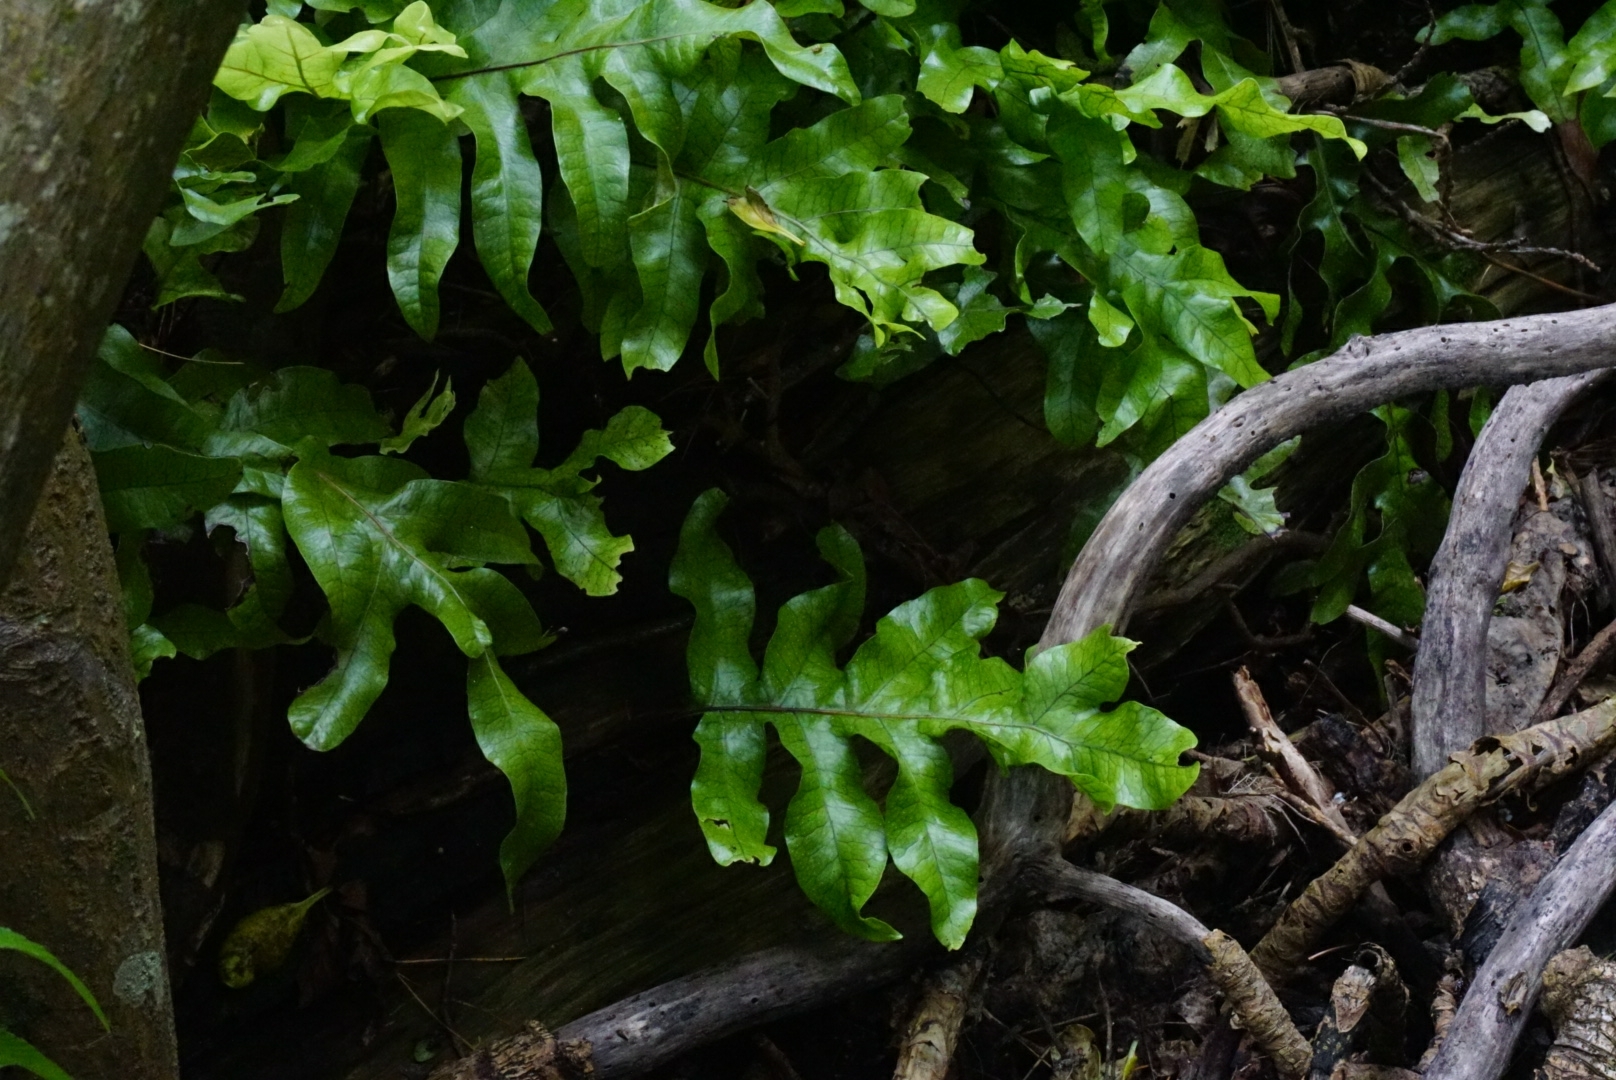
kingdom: Plantae
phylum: Tracheophyta
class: Polypodiopsida
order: Polypodiales
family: Polypodiaceae
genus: Lecanopteris
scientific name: Lecanopteris pustulata
